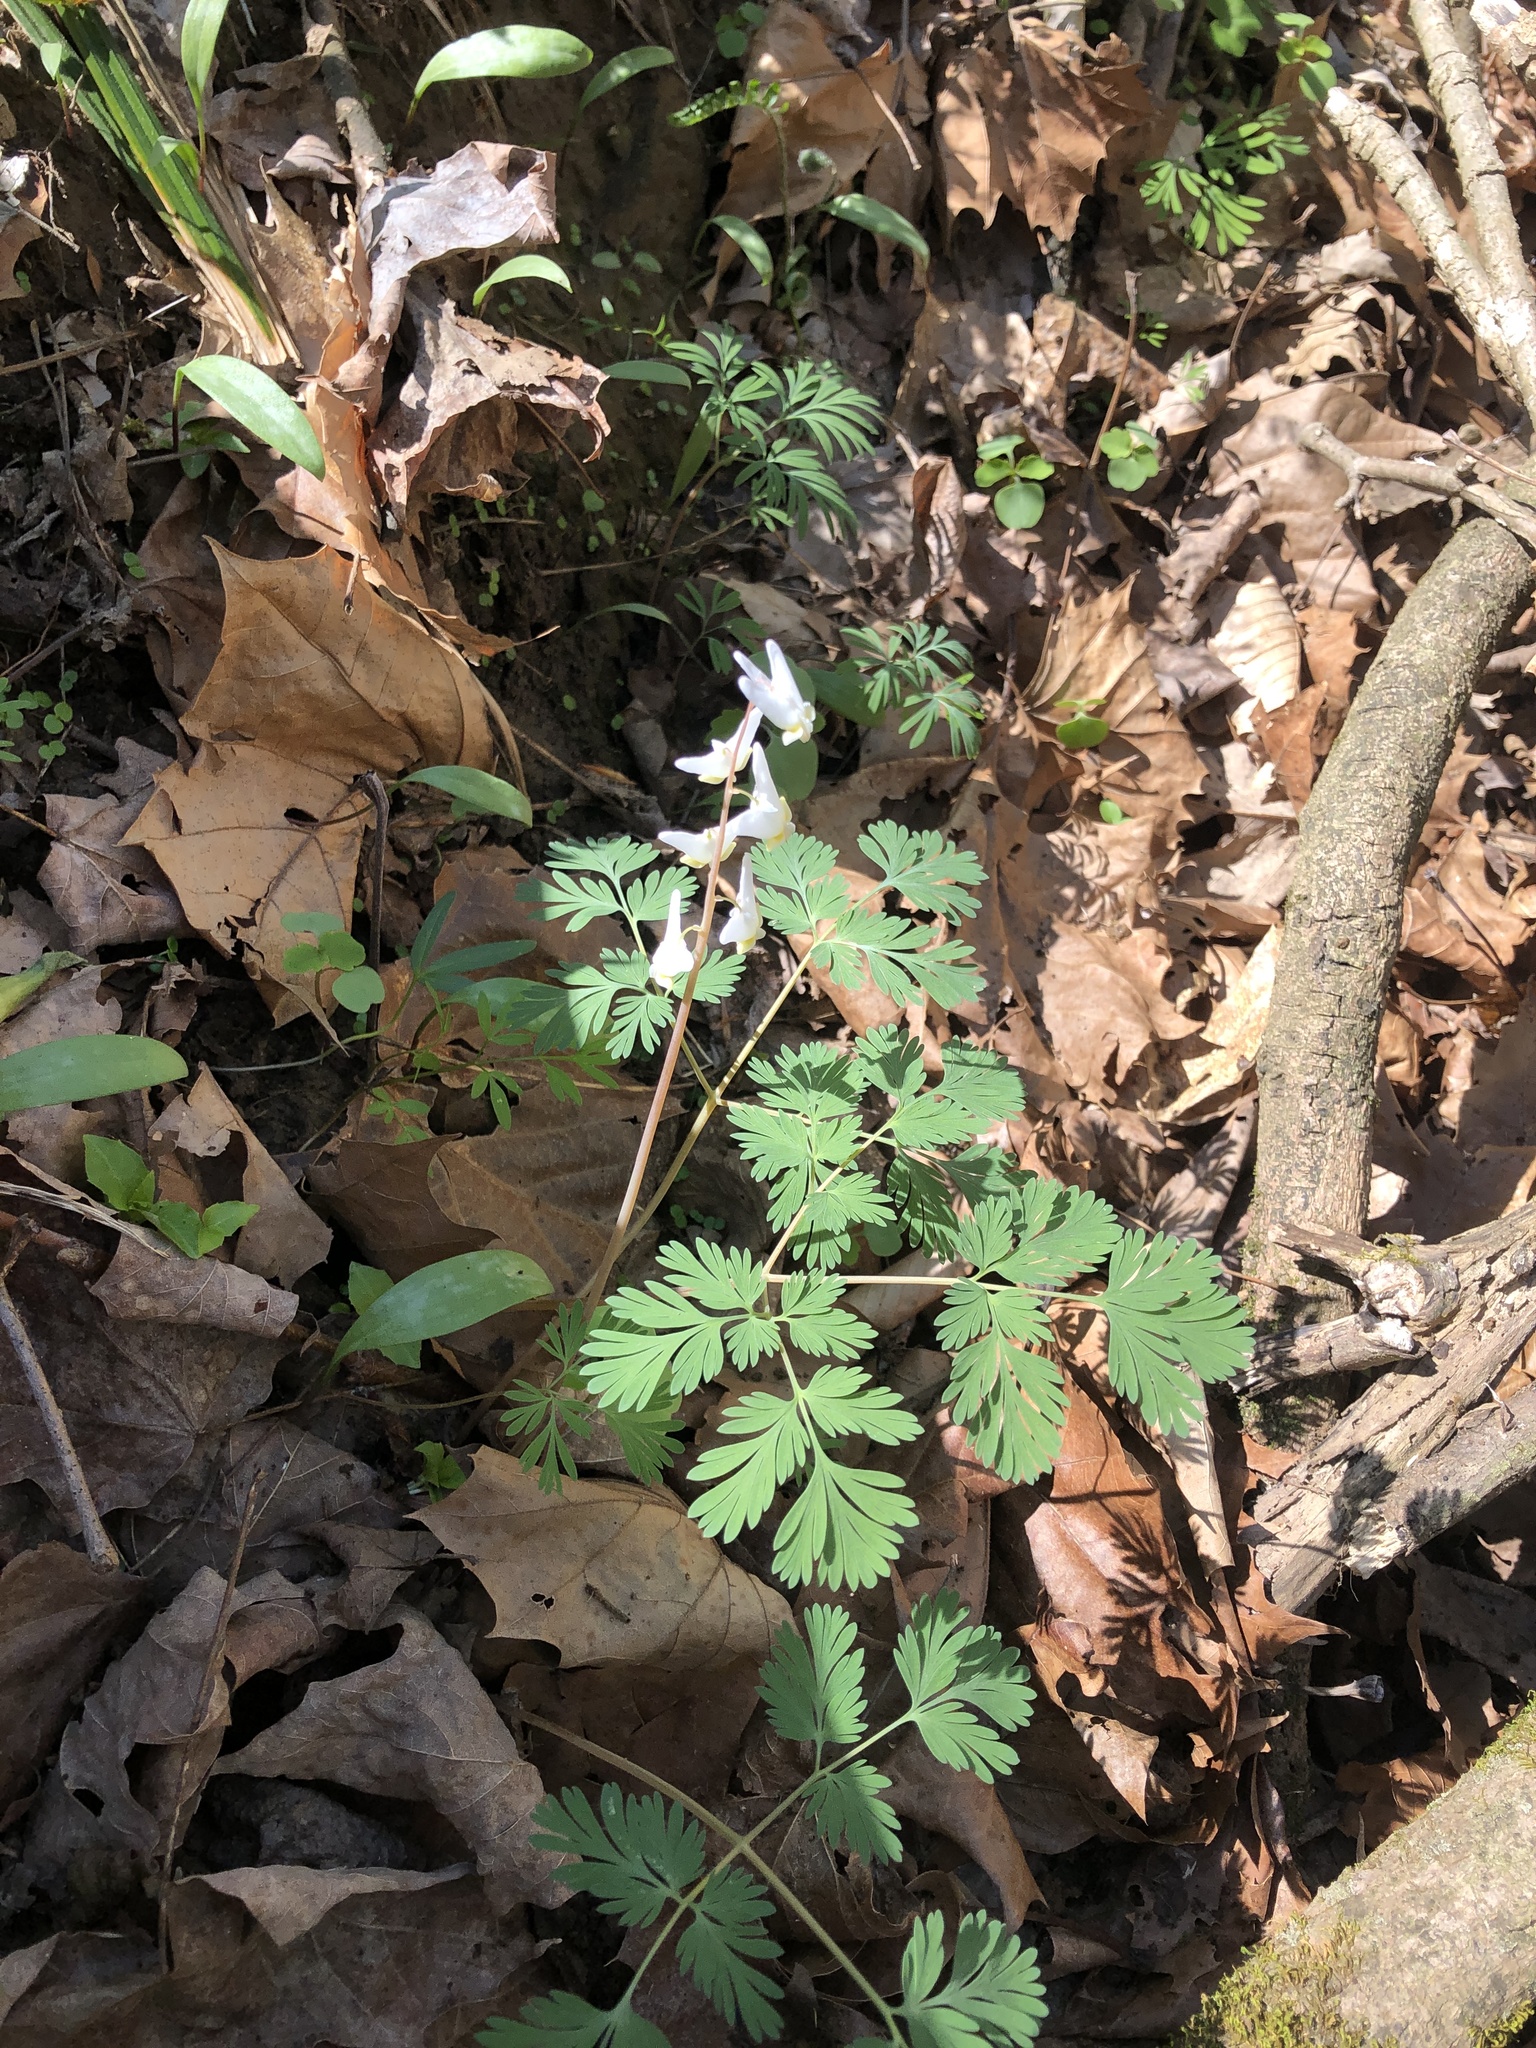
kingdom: Plantae
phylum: Tracheophyta
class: Magnoliopsida
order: Ranunculales
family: Papaveraceae
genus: Dicentra
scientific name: Dicentra cucullaria
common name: Dutchman's breeches
